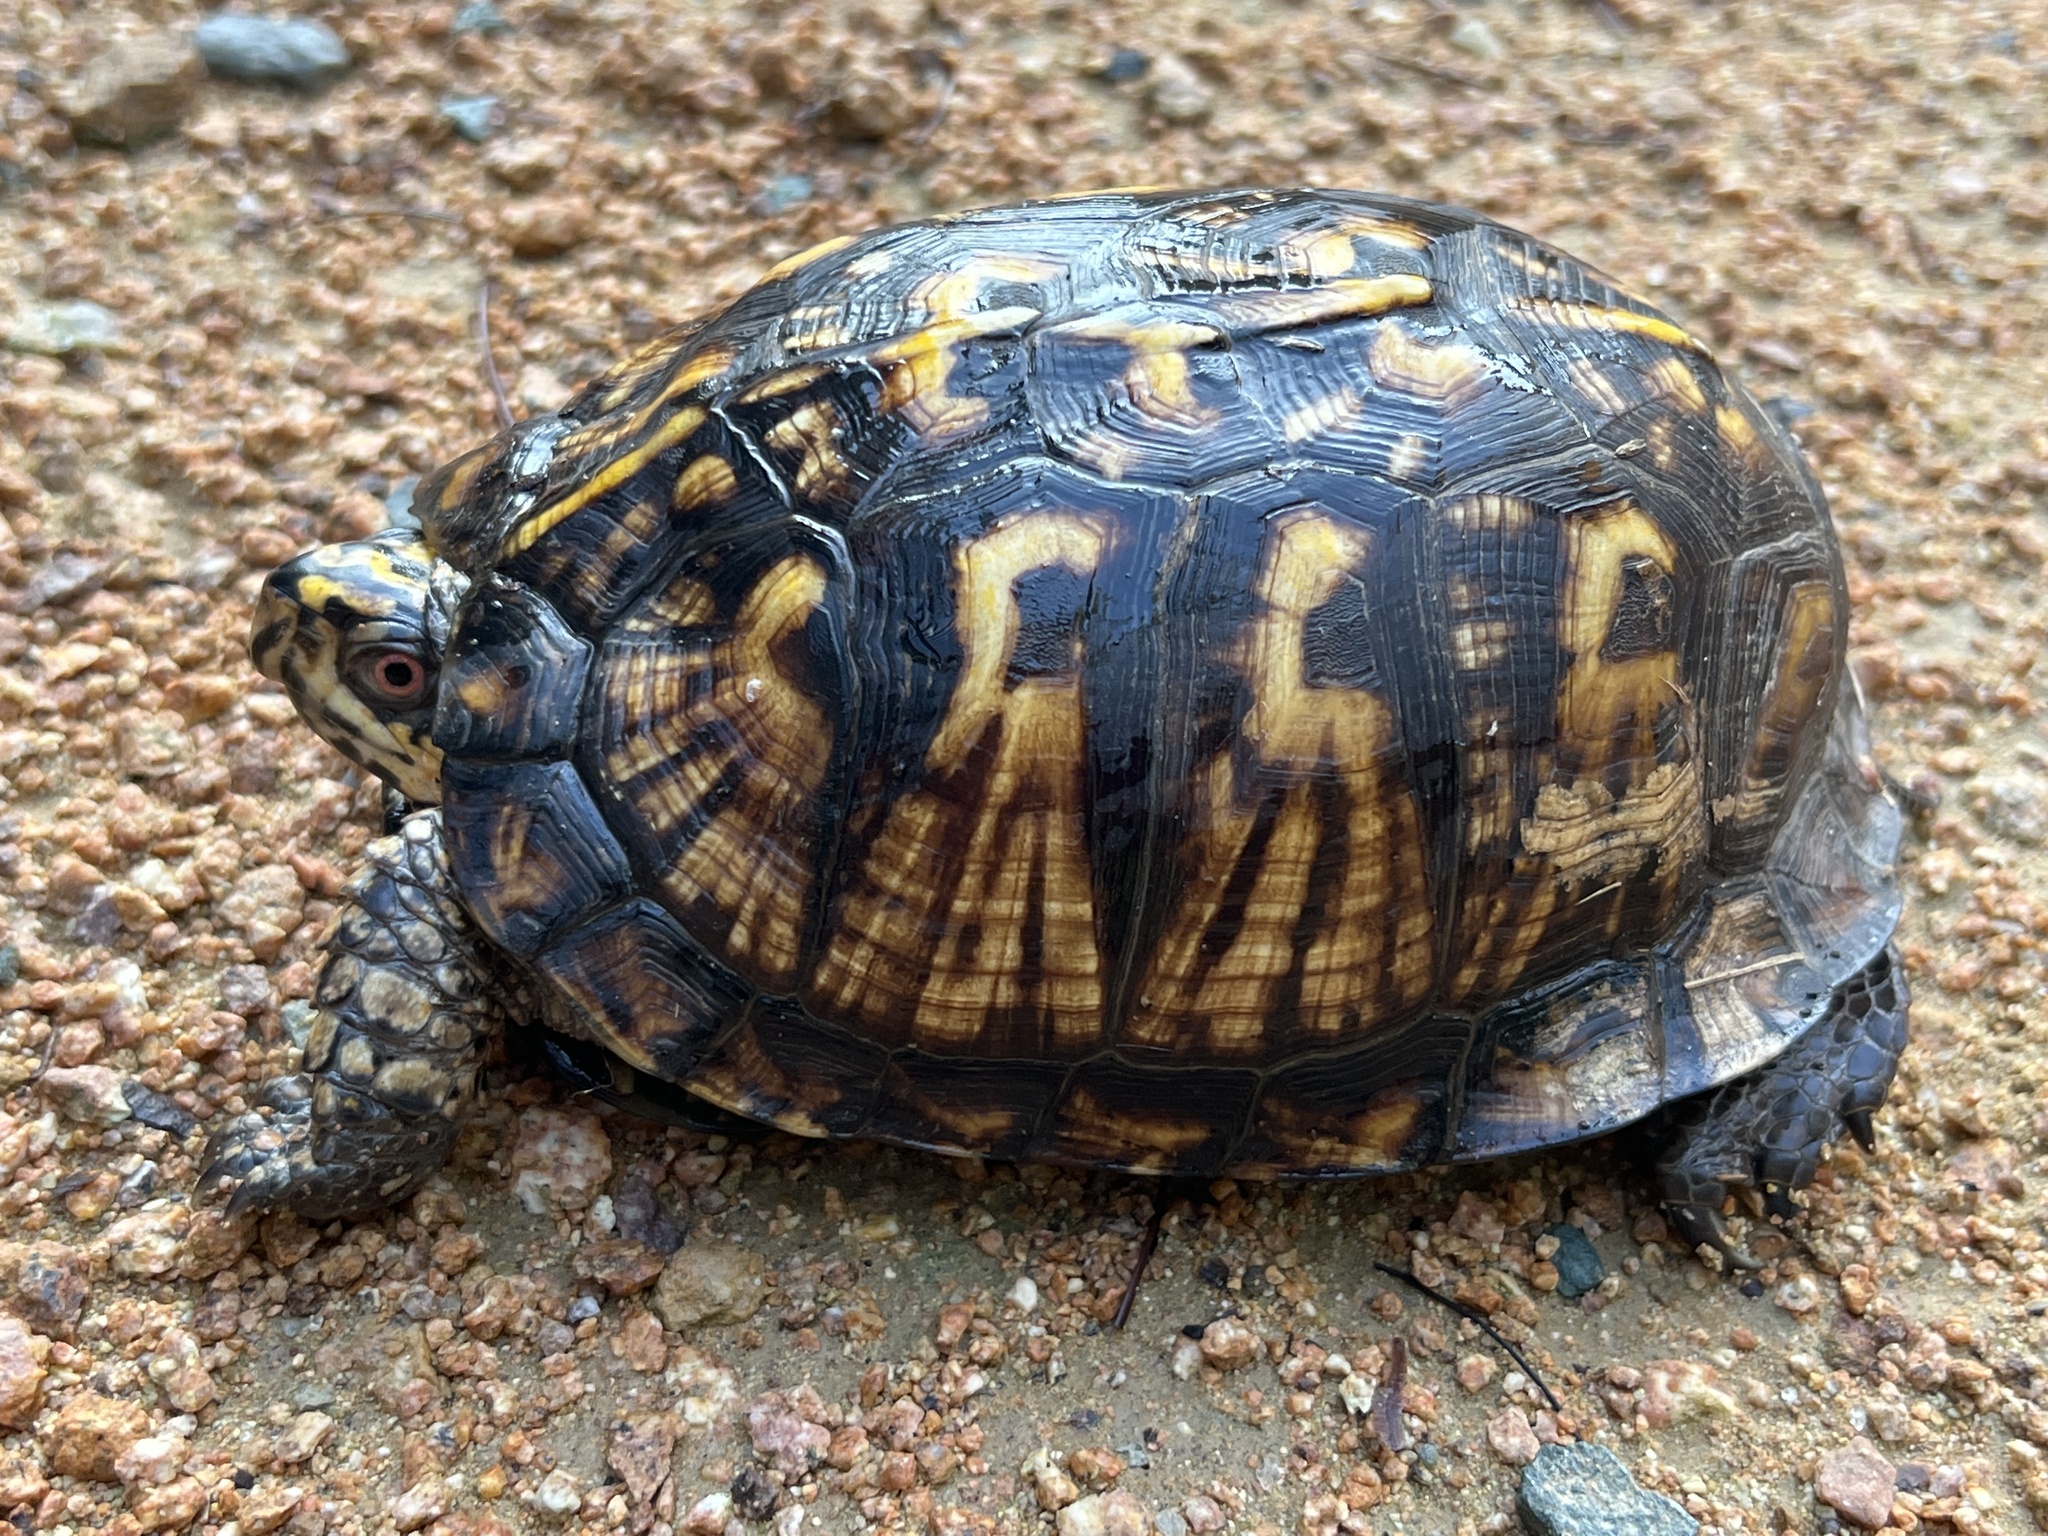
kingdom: Animalia
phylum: Chordata
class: Testudines
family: Emydidae
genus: Terrapene
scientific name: Terrapene carolina
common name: Common box turtle
